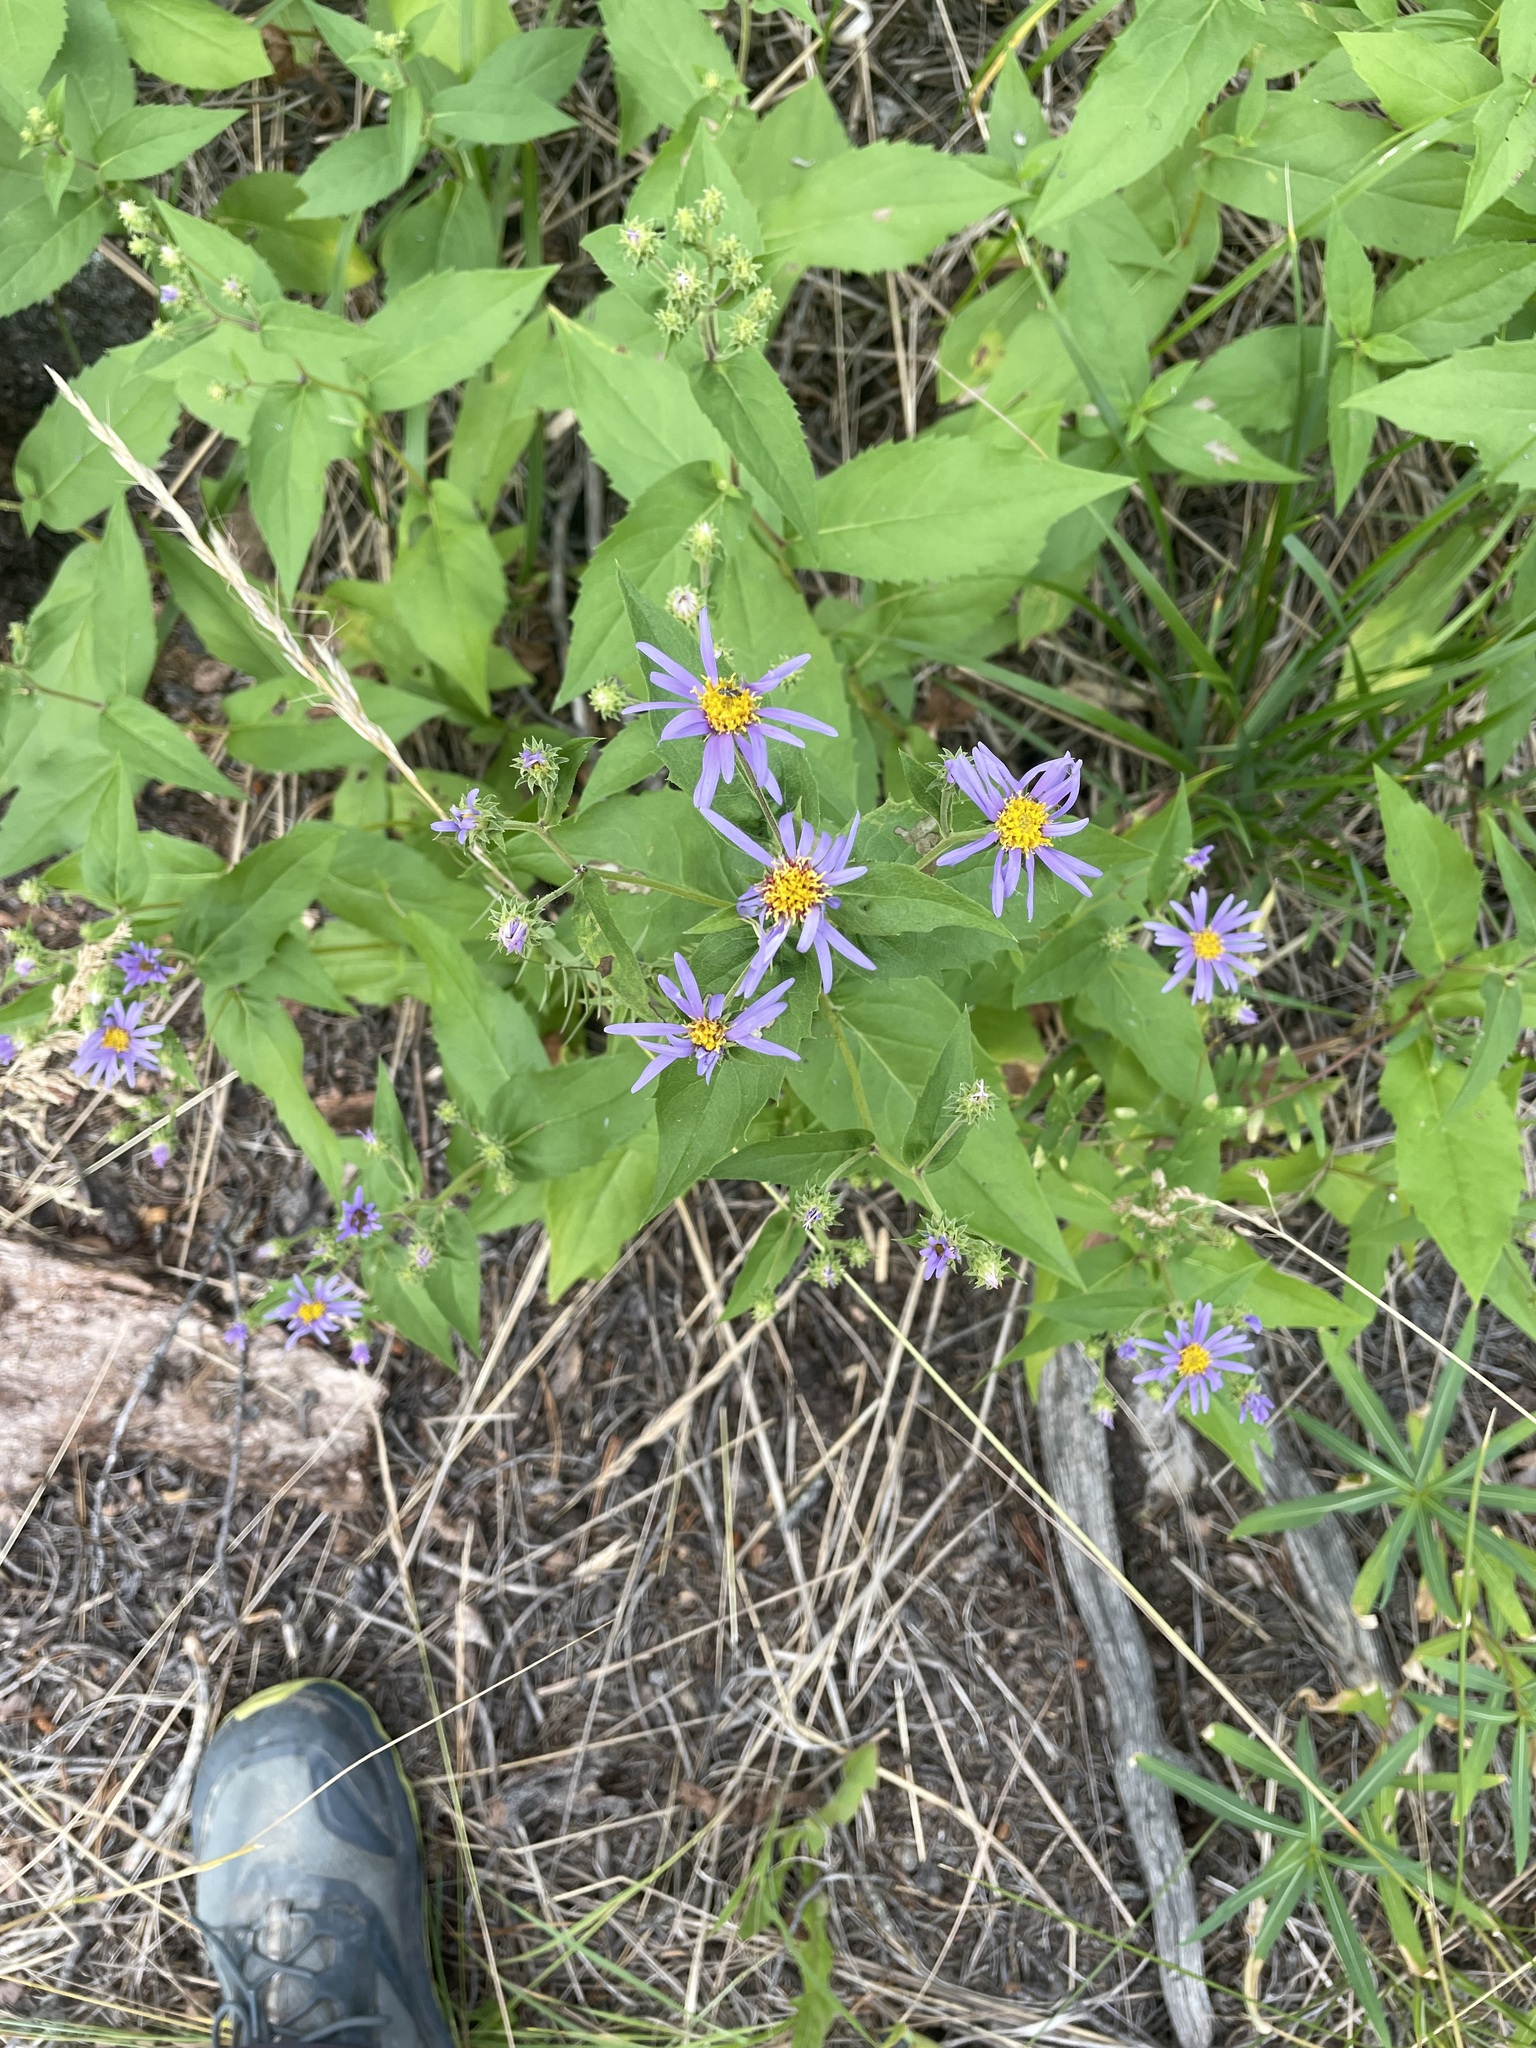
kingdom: Plantae
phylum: Tracheophyta
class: Magnoliopsida
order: Asterales
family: Asteraceae
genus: Eurybia
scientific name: Eurybia conspicua
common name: Showy aster
